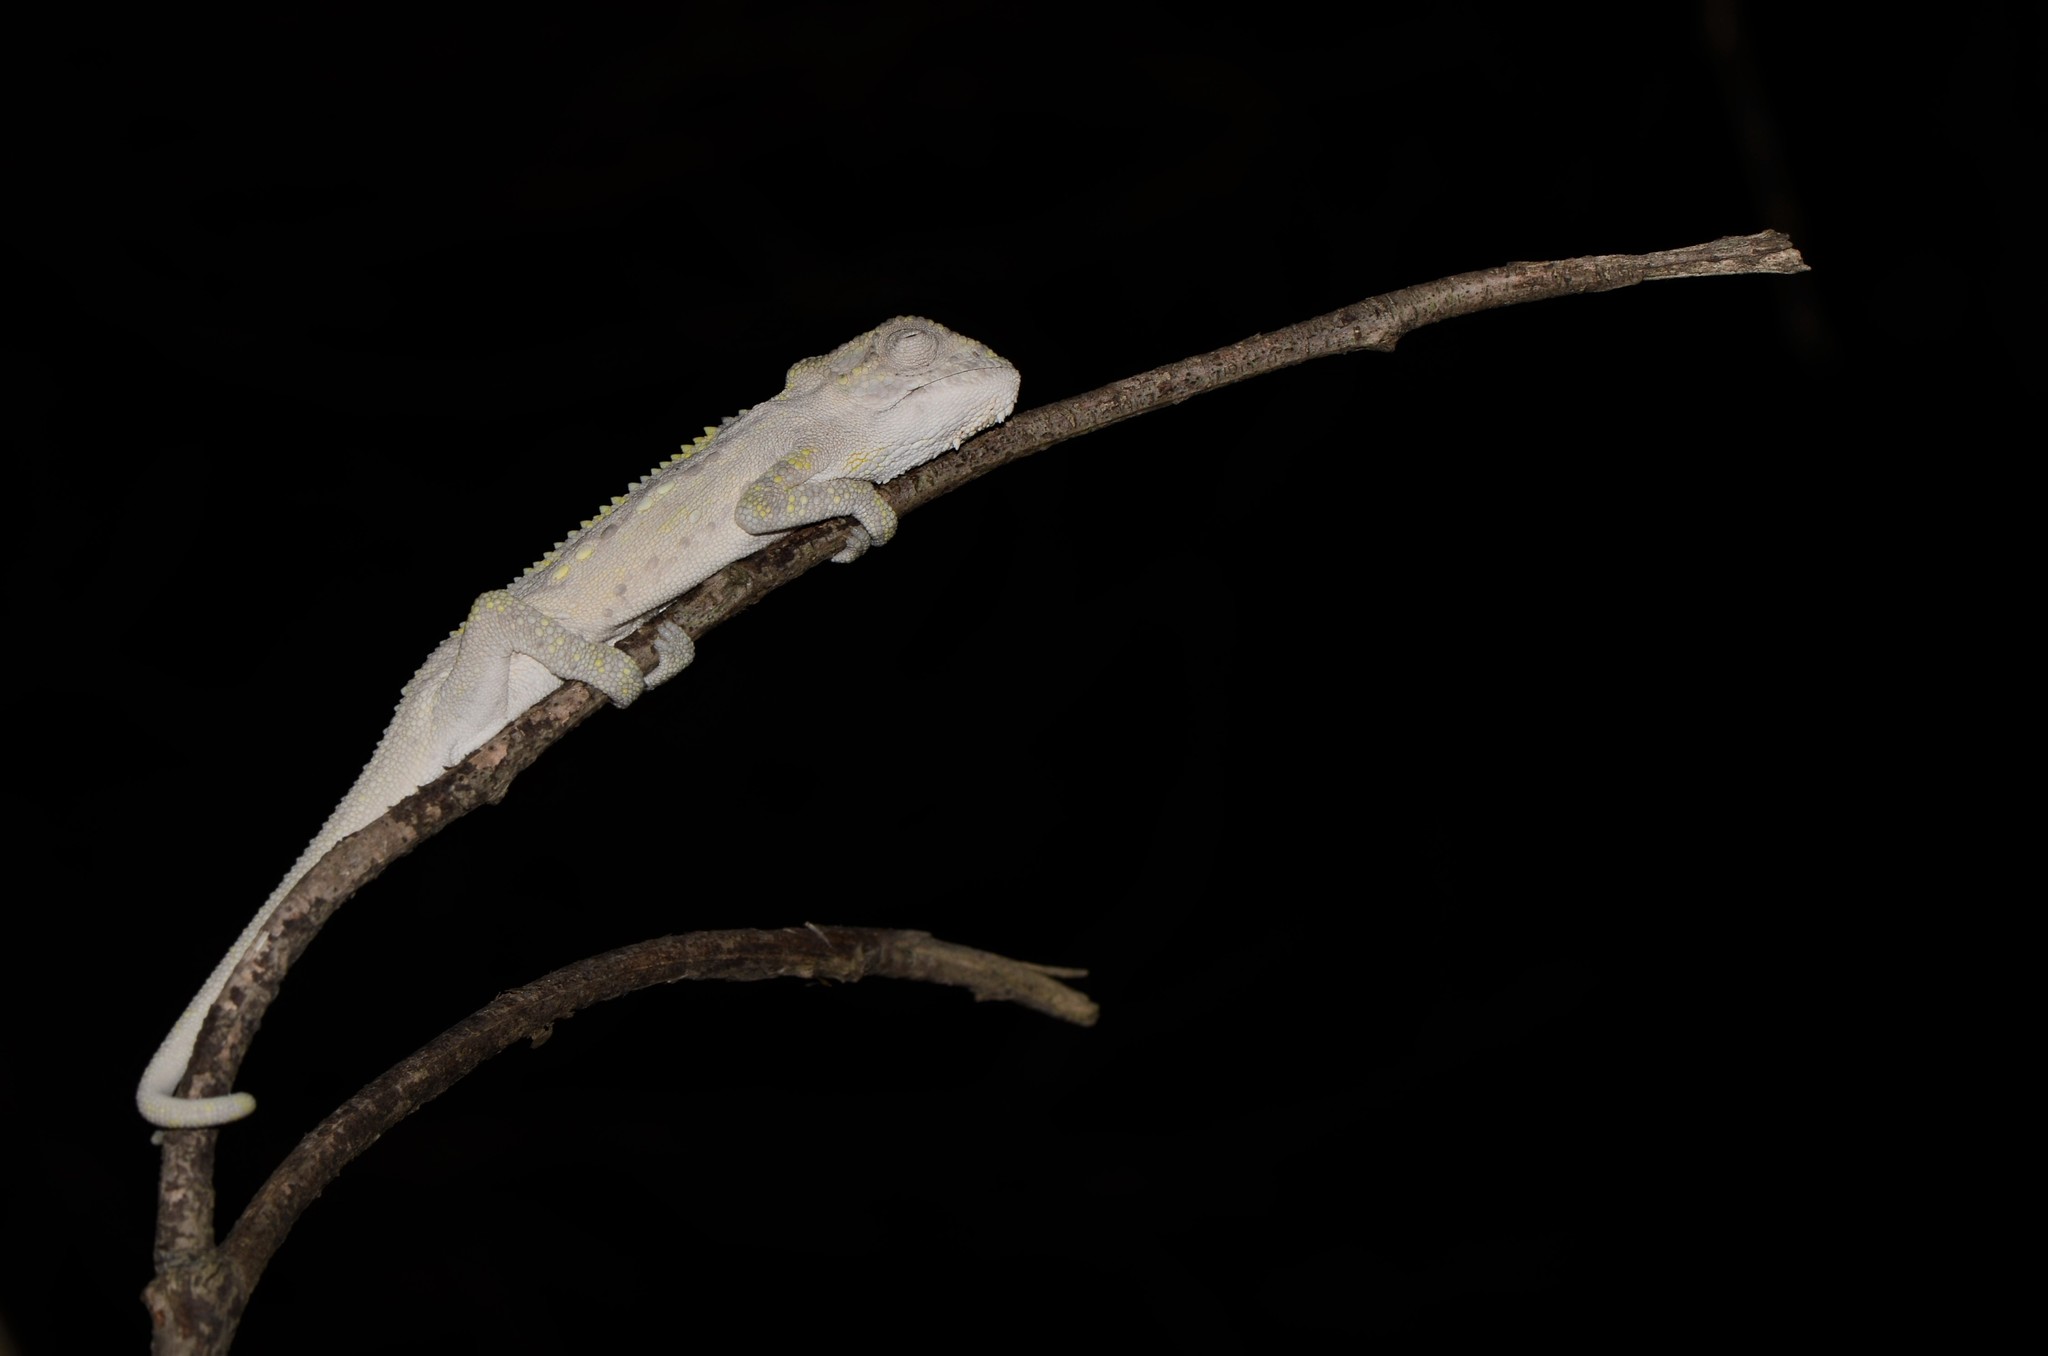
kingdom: Animalia
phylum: Chordata
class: Squamata
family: Chamaeleonidae
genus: Bradypodion
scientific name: Bradypodion pumilum
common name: Cape dwarf chameleon
